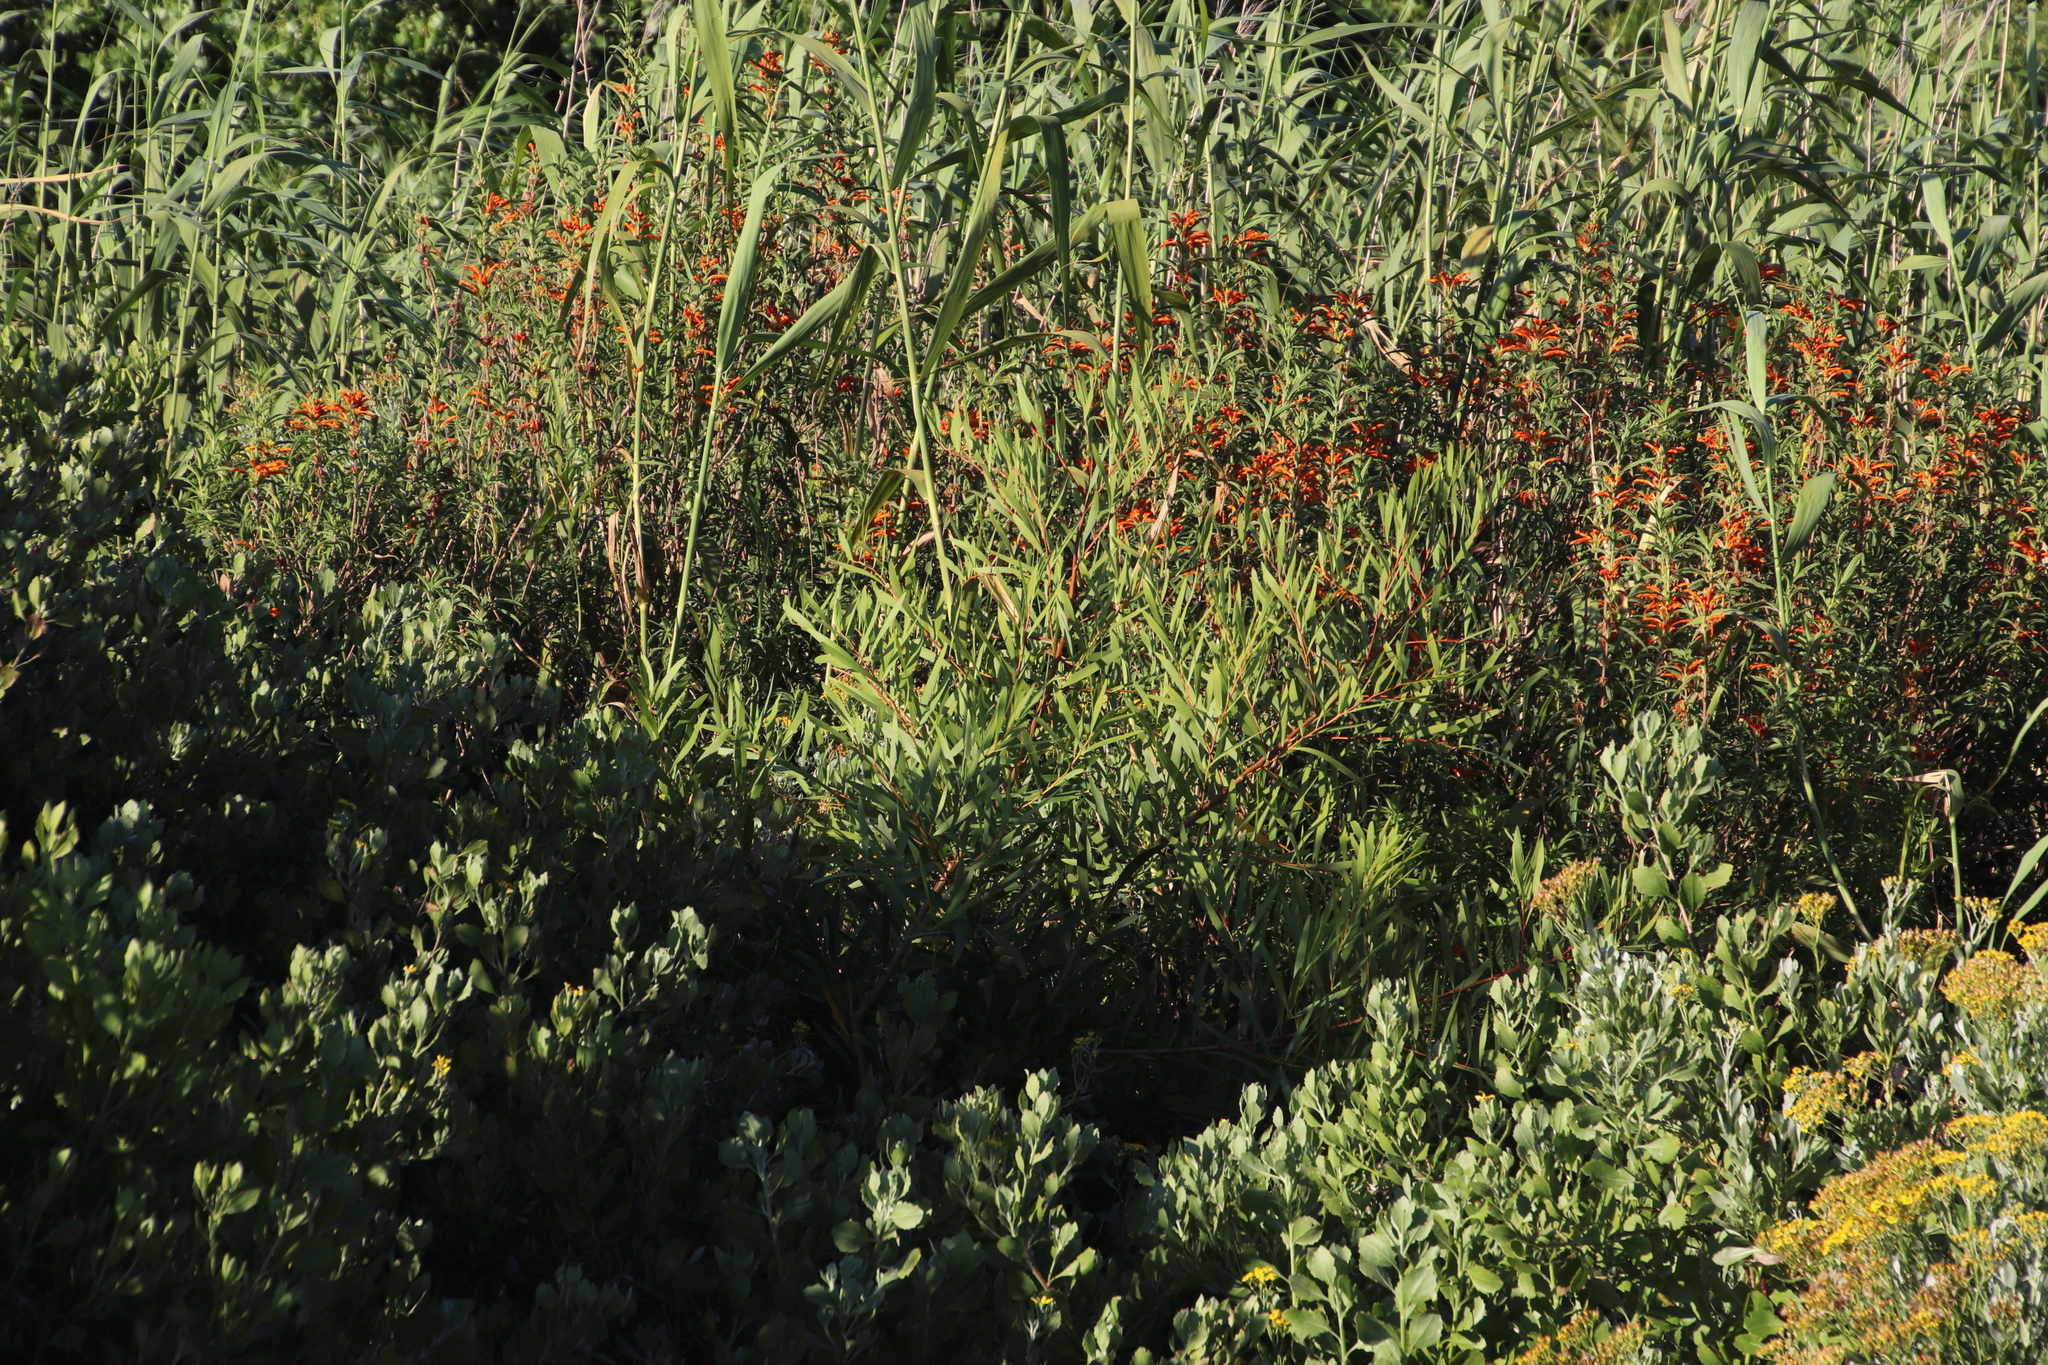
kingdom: Plantae
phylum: Tracheophyta
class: Magnoliopsida
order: Fabales
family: Fabaceae
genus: Acacia
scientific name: Acacia longifolia
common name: Sydney golden wattle
